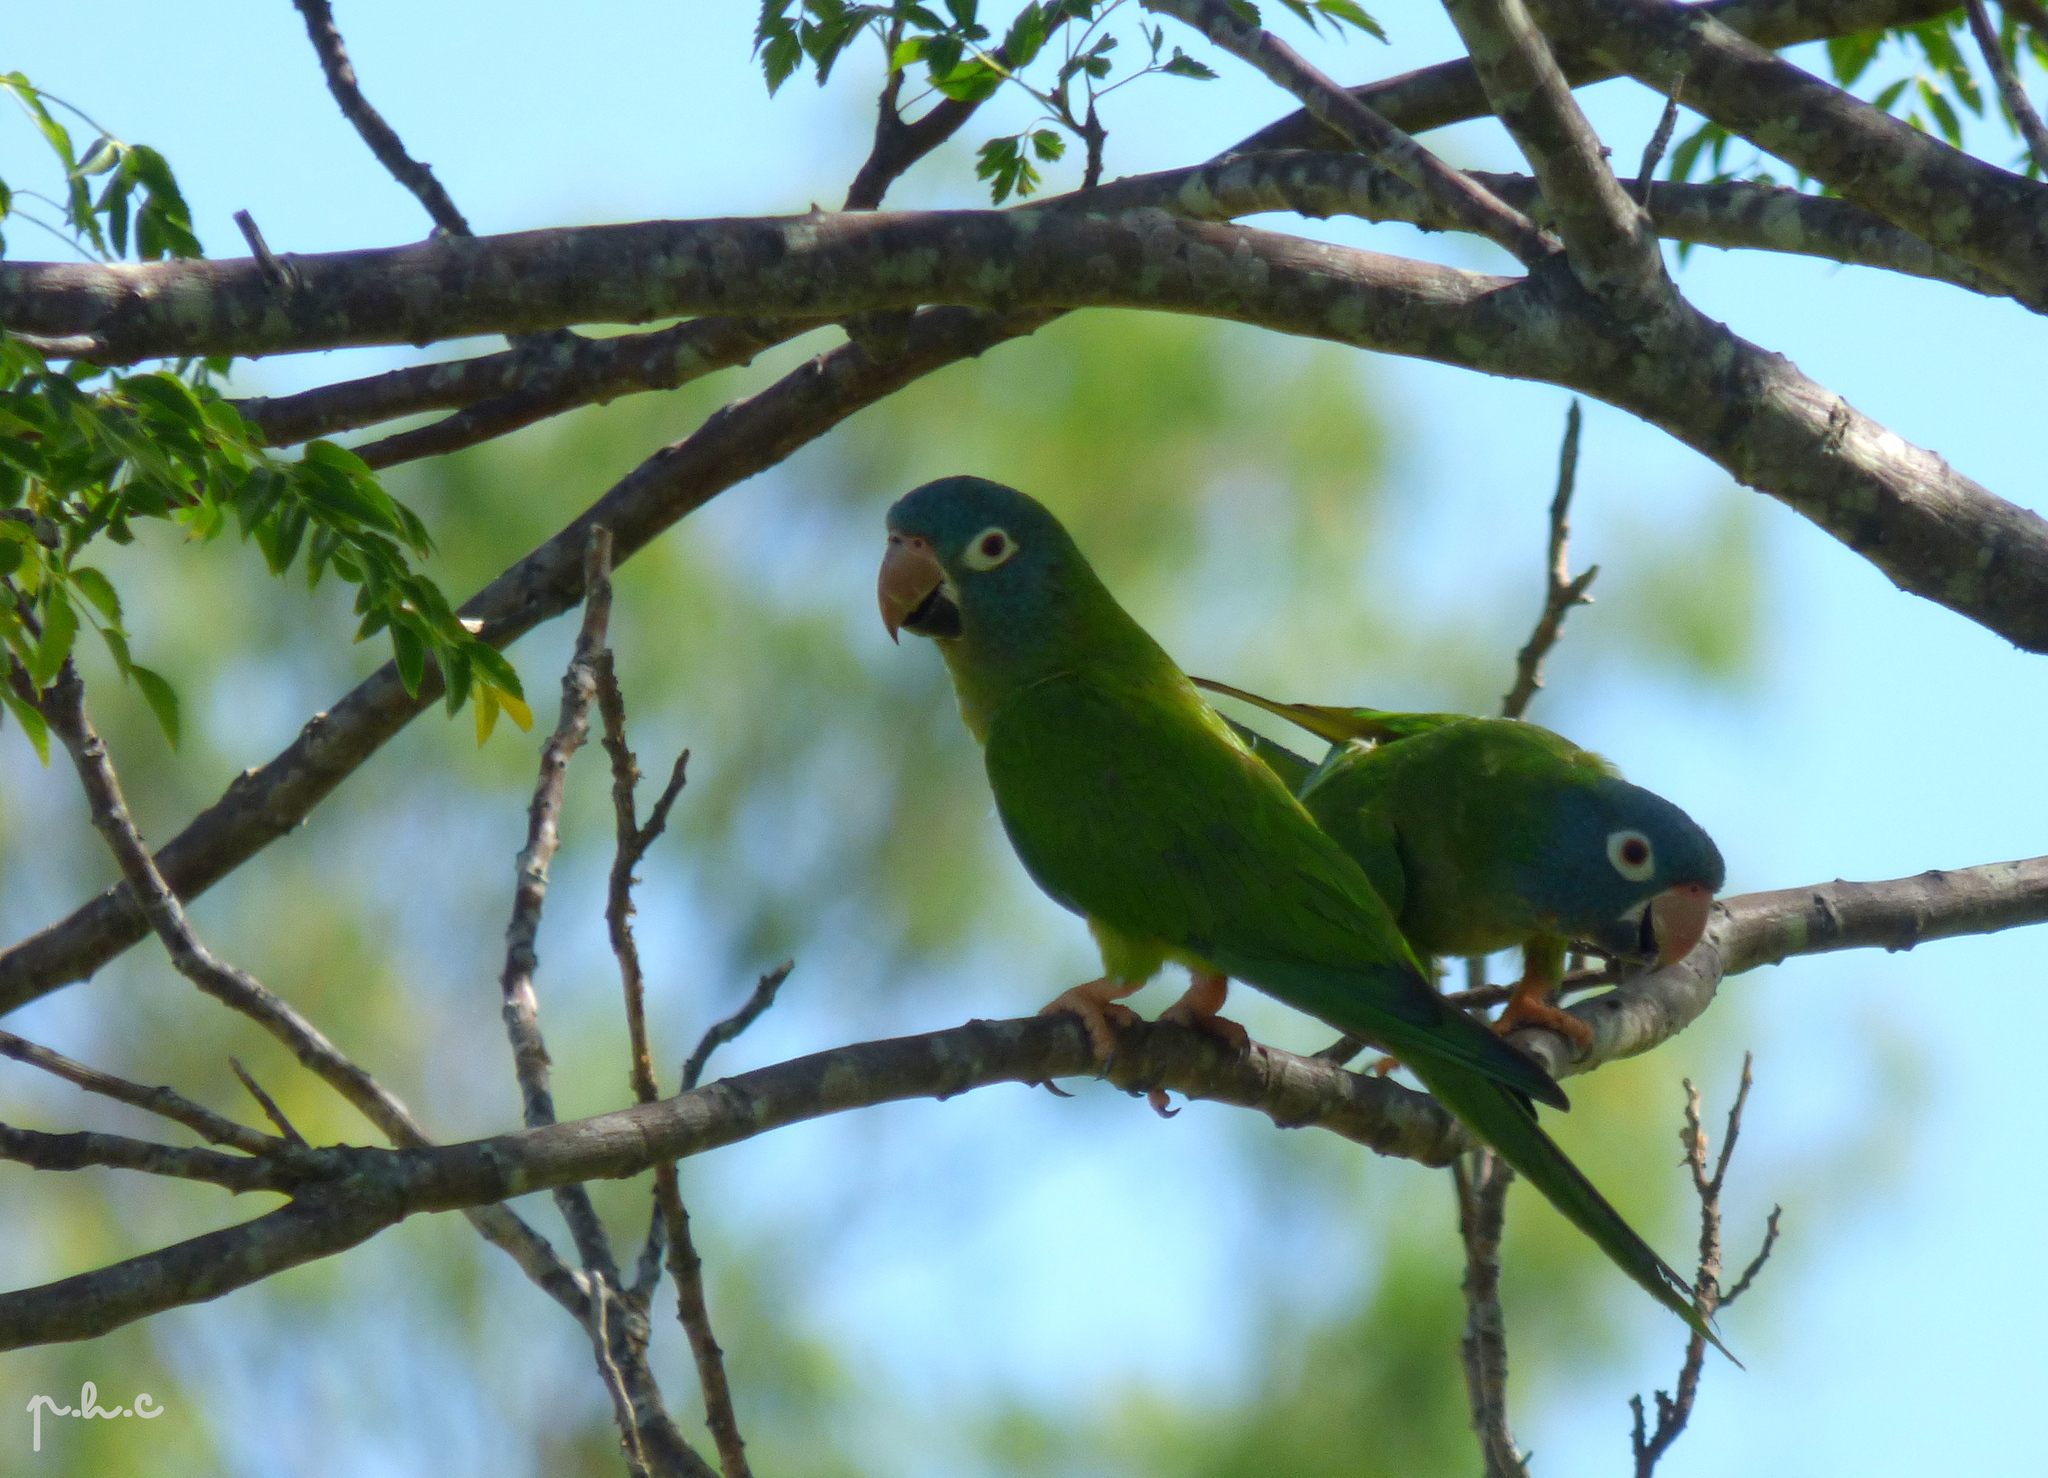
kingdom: Animalia
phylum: Chordata
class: Aves
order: Psittaciformes
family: Psittacidae
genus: Aratinga
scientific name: Aratinga acuticaudata
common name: Blue-crowned parakeet
